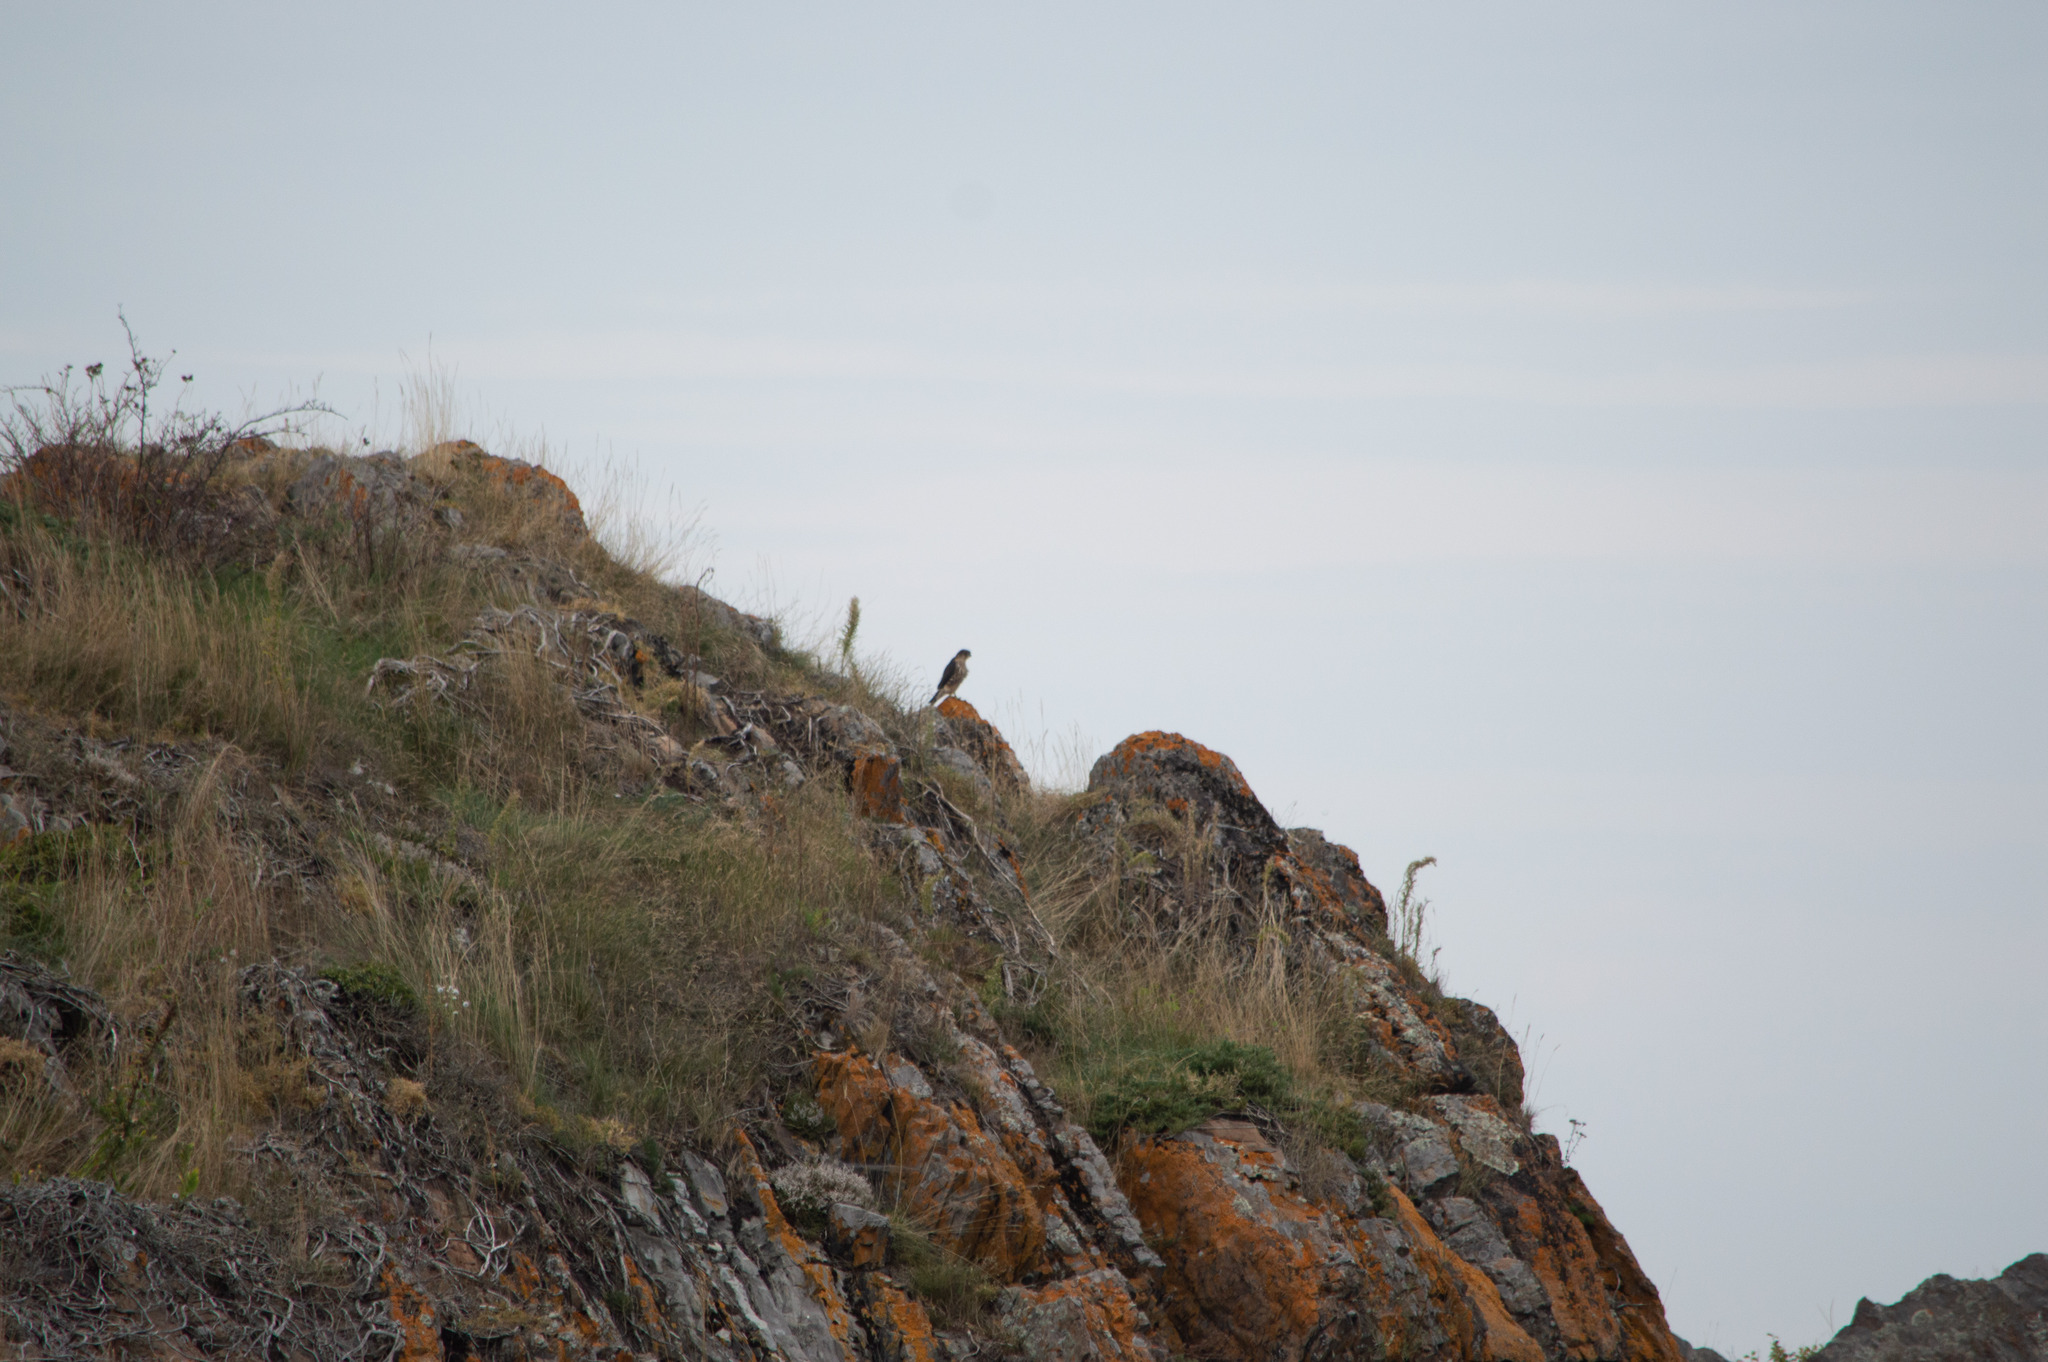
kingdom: Animalia
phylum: Chordata
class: Aves
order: Falconiformes
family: Falconidae
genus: Falco
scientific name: Falco columbarius
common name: Merlin
